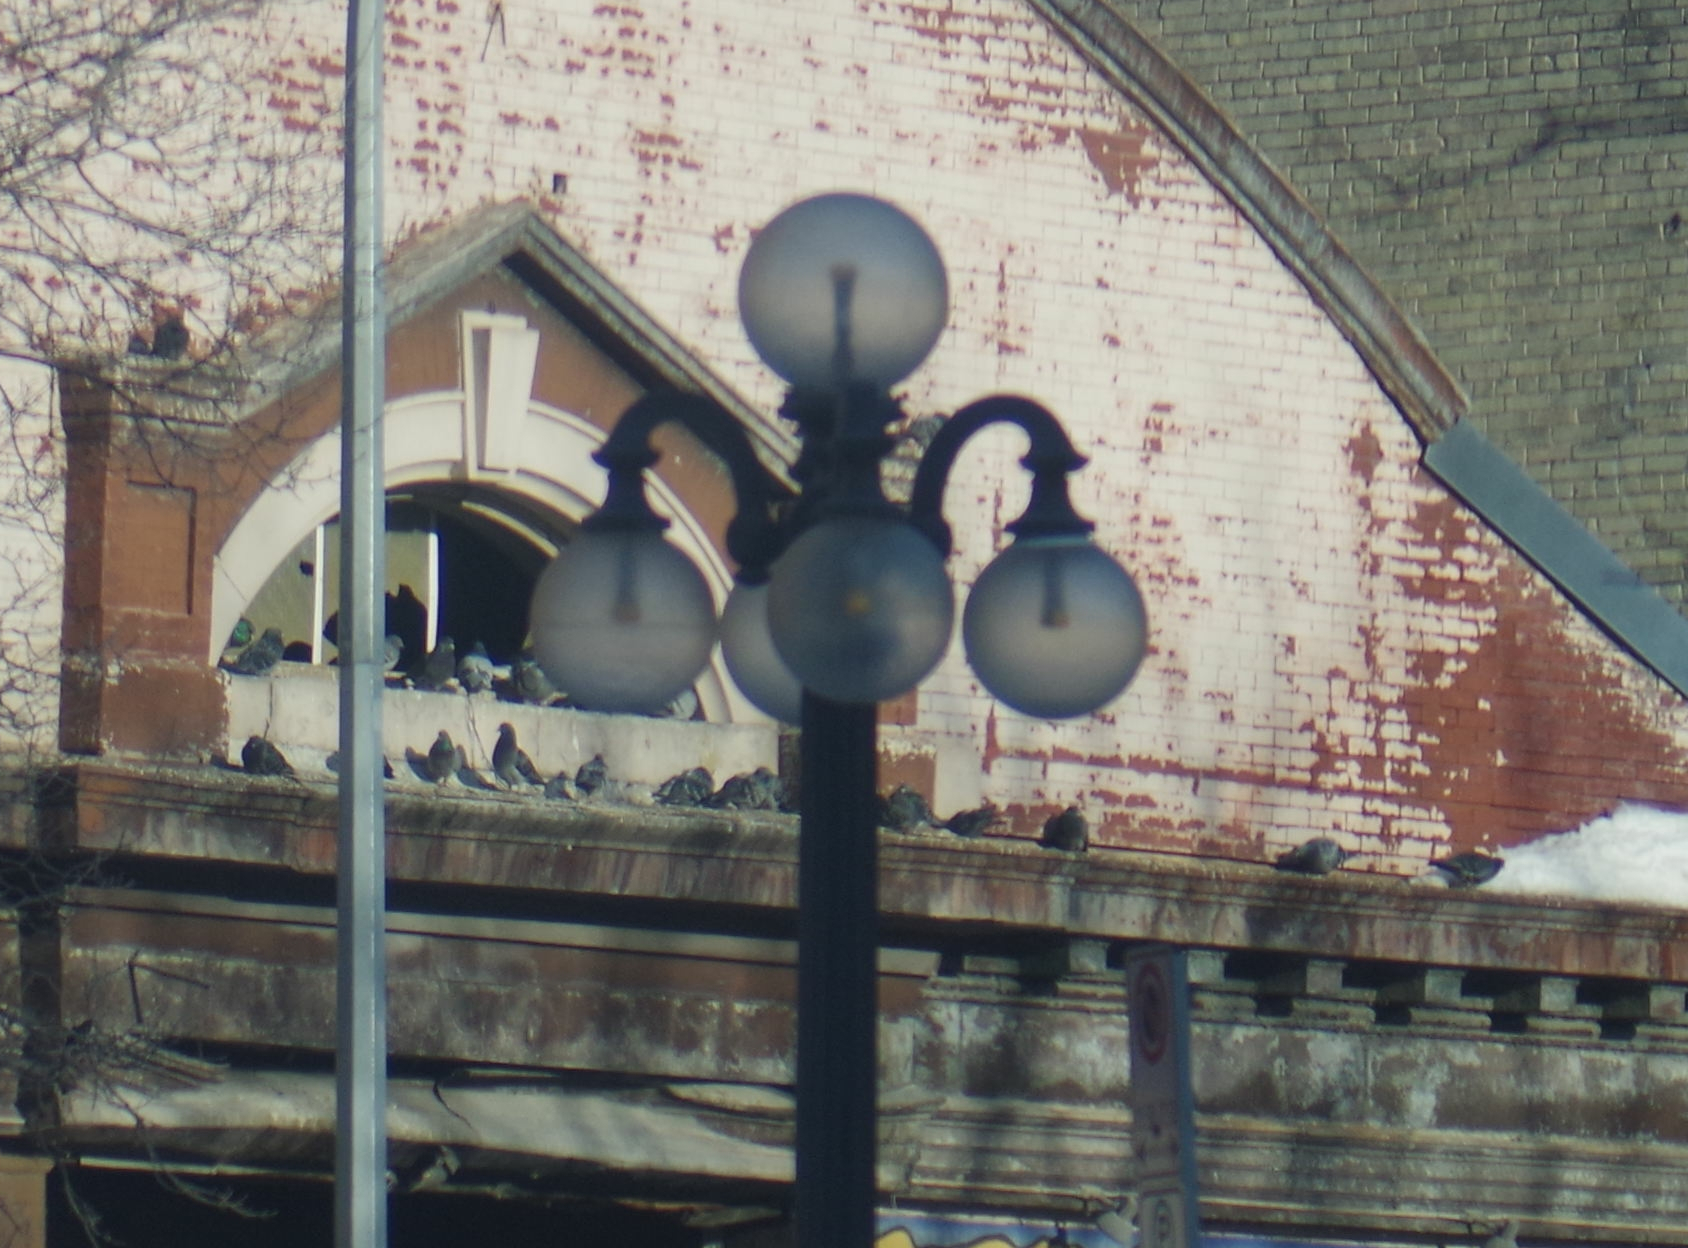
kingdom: Animalia
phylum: Chordata
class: Aves
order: Columbiformes
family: Columbidae
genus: Columba
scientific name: Columba livia
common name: Rock pigeon
